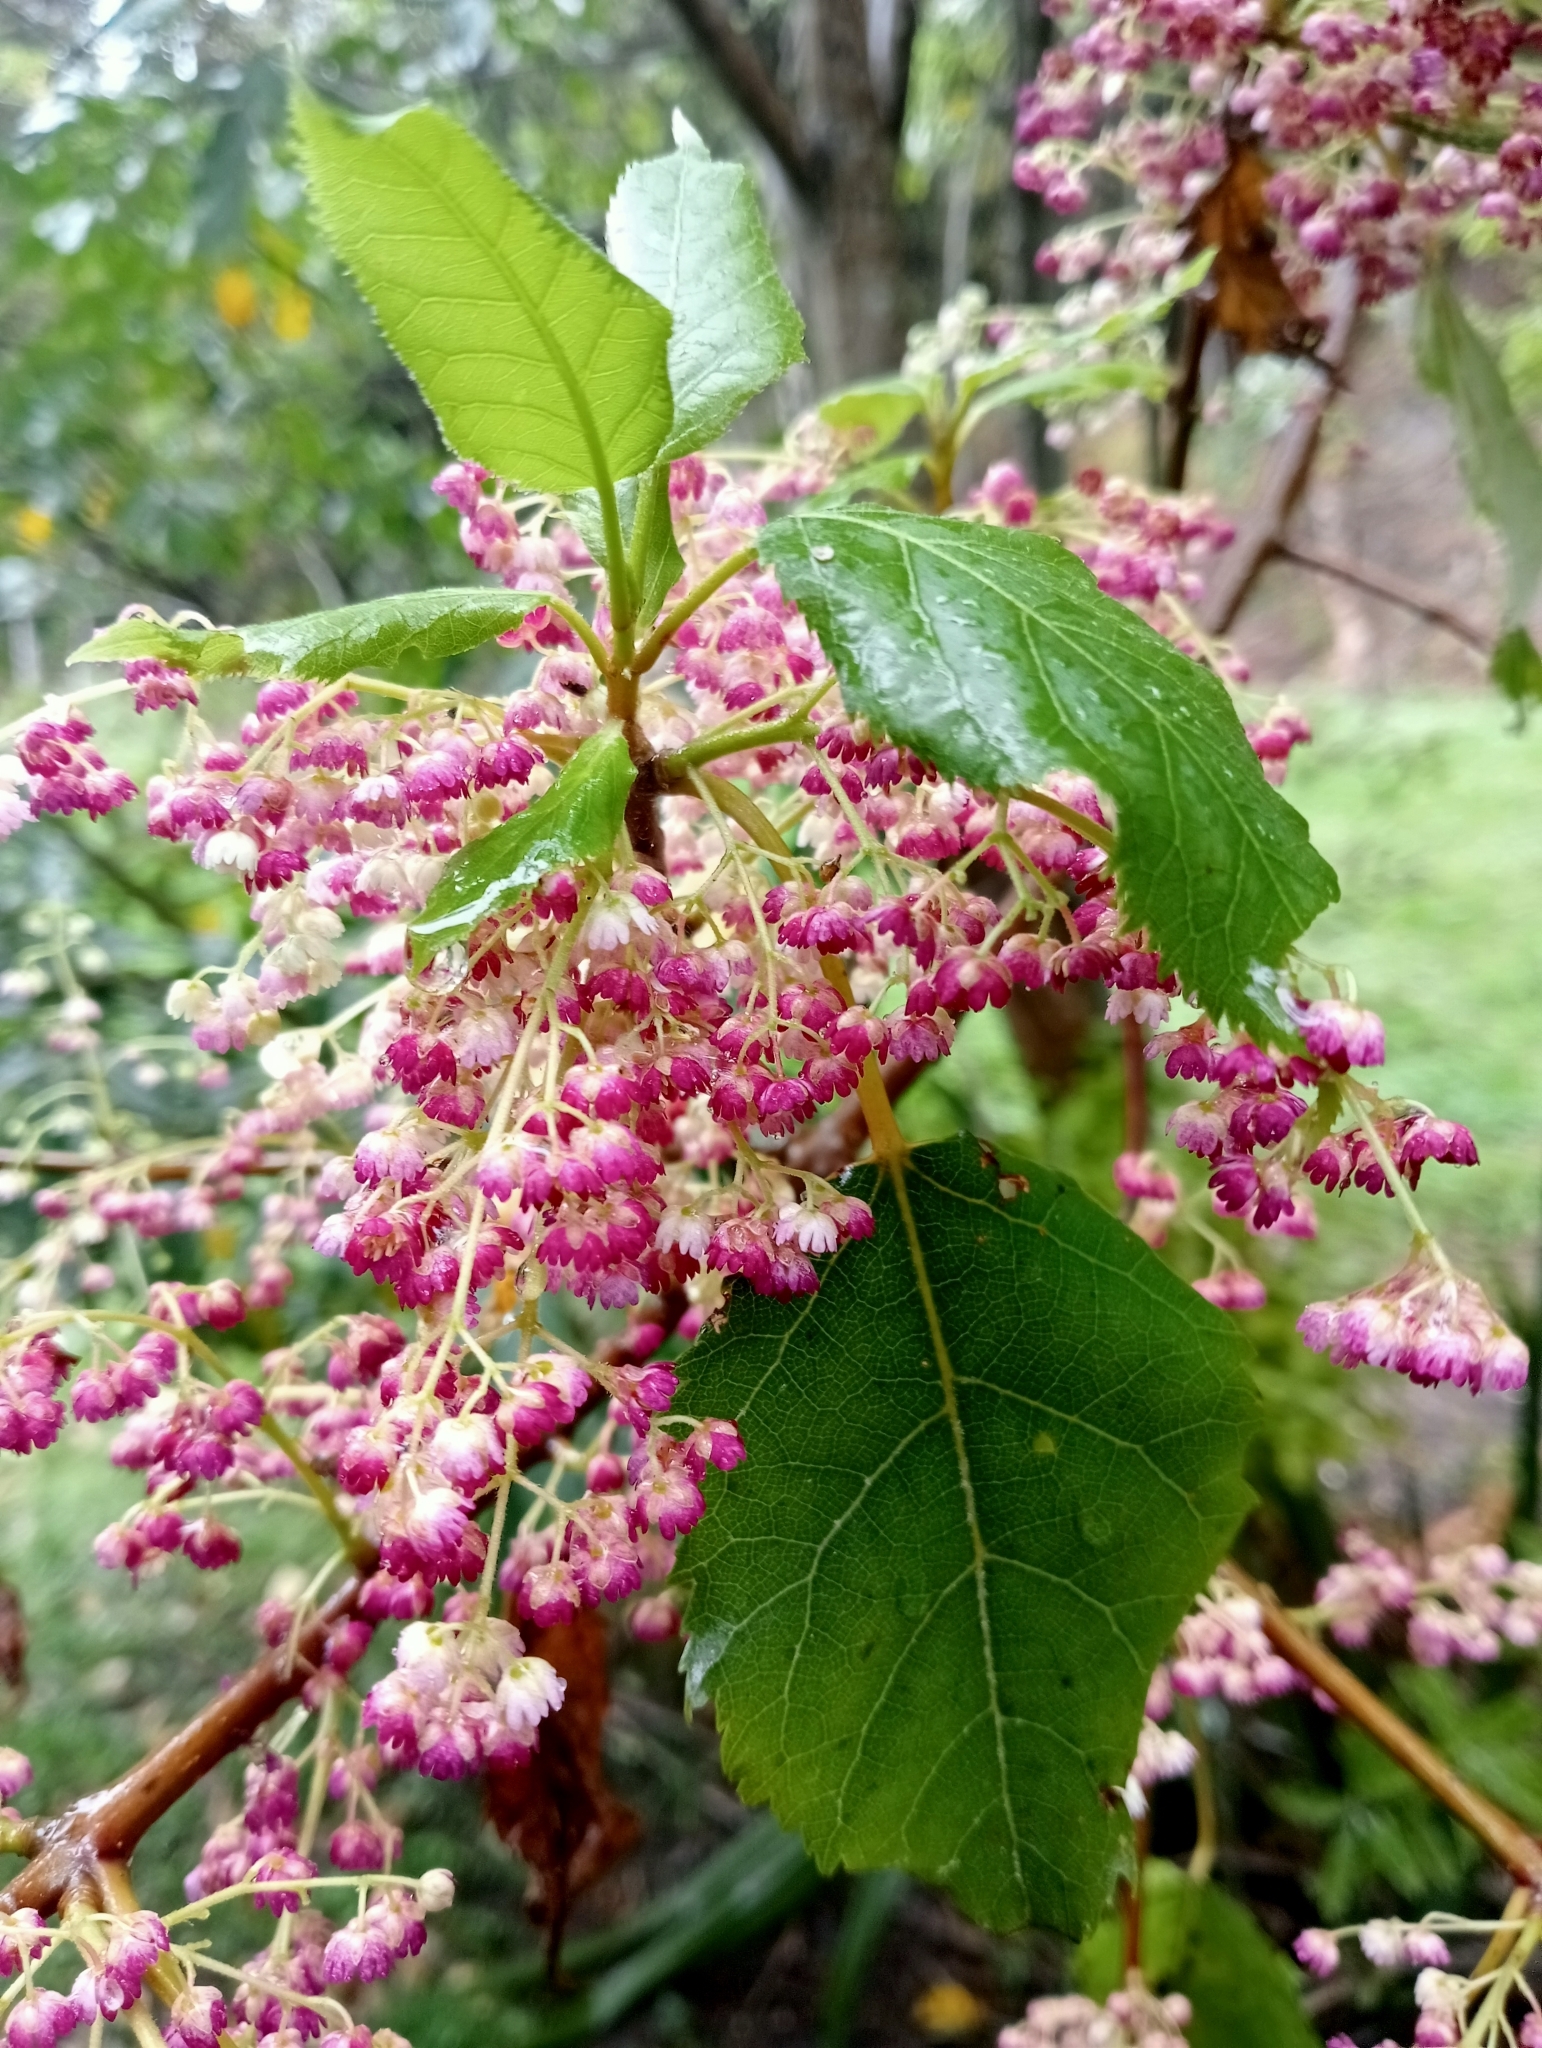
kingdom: Plantae
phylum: Tracheophyta
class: Magnoliopsida
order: Oxalidales
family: Elaeocarpaceae
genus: Aristotelia
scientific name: Aristotelia serrata
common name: New zealand wineberry
